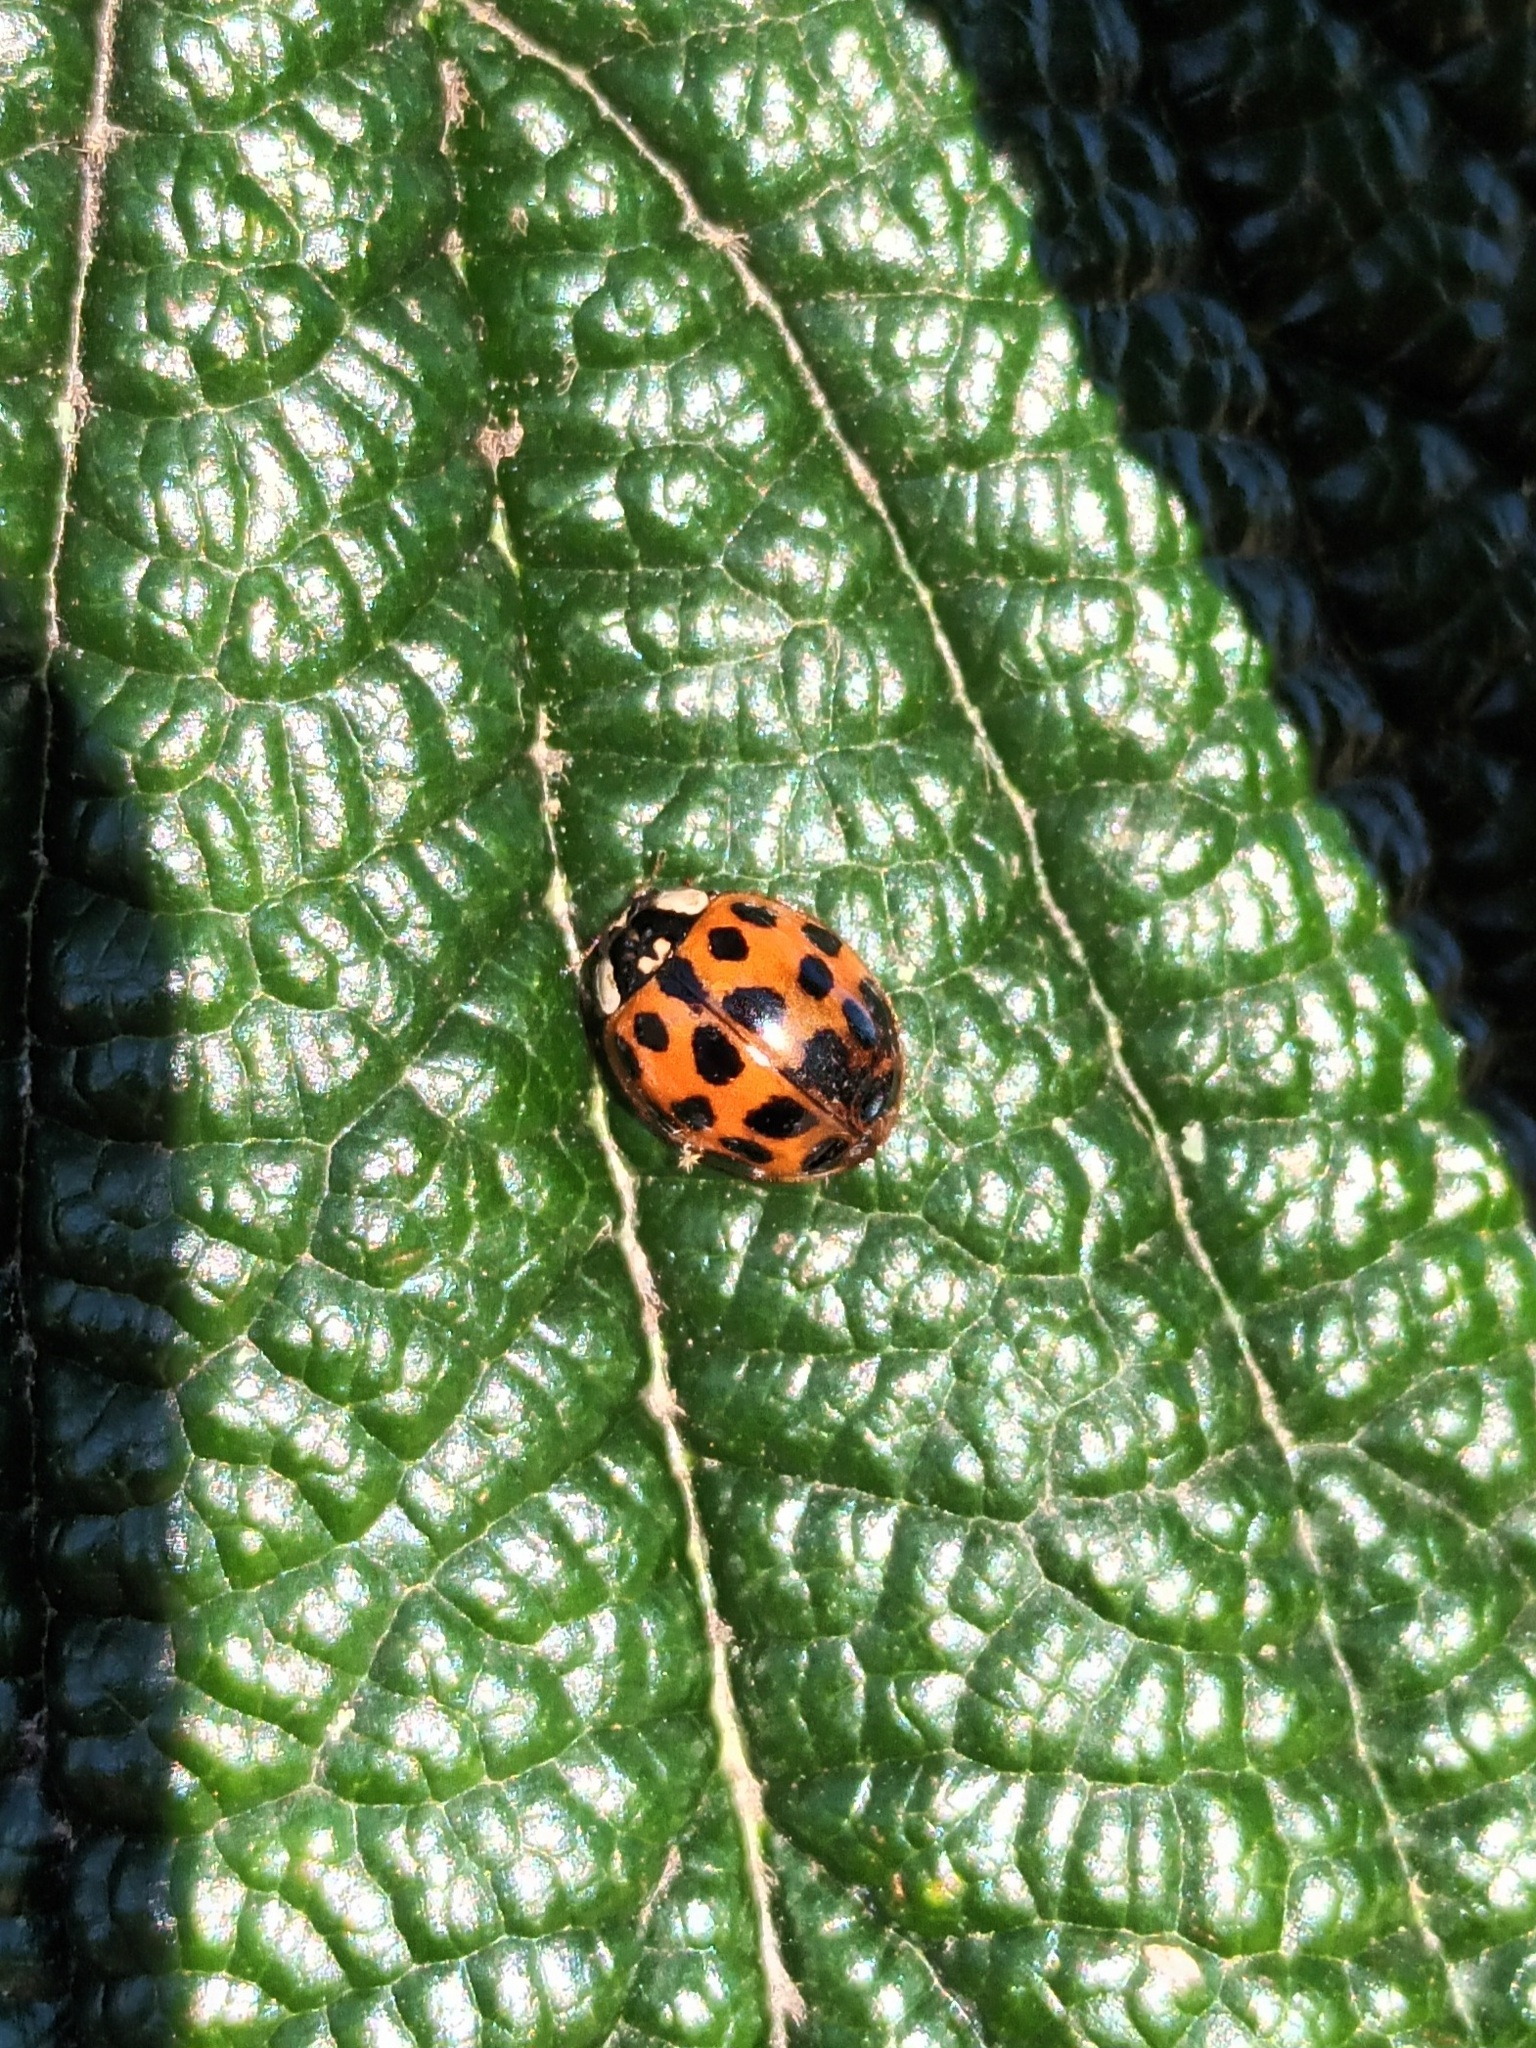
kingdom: Animalia
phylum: Arthropoda
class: Insecta
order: Coleoptera
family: Coccinellidae
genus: Harmonia
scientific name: Harmonia axyridis
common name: Harlequin ladybird
